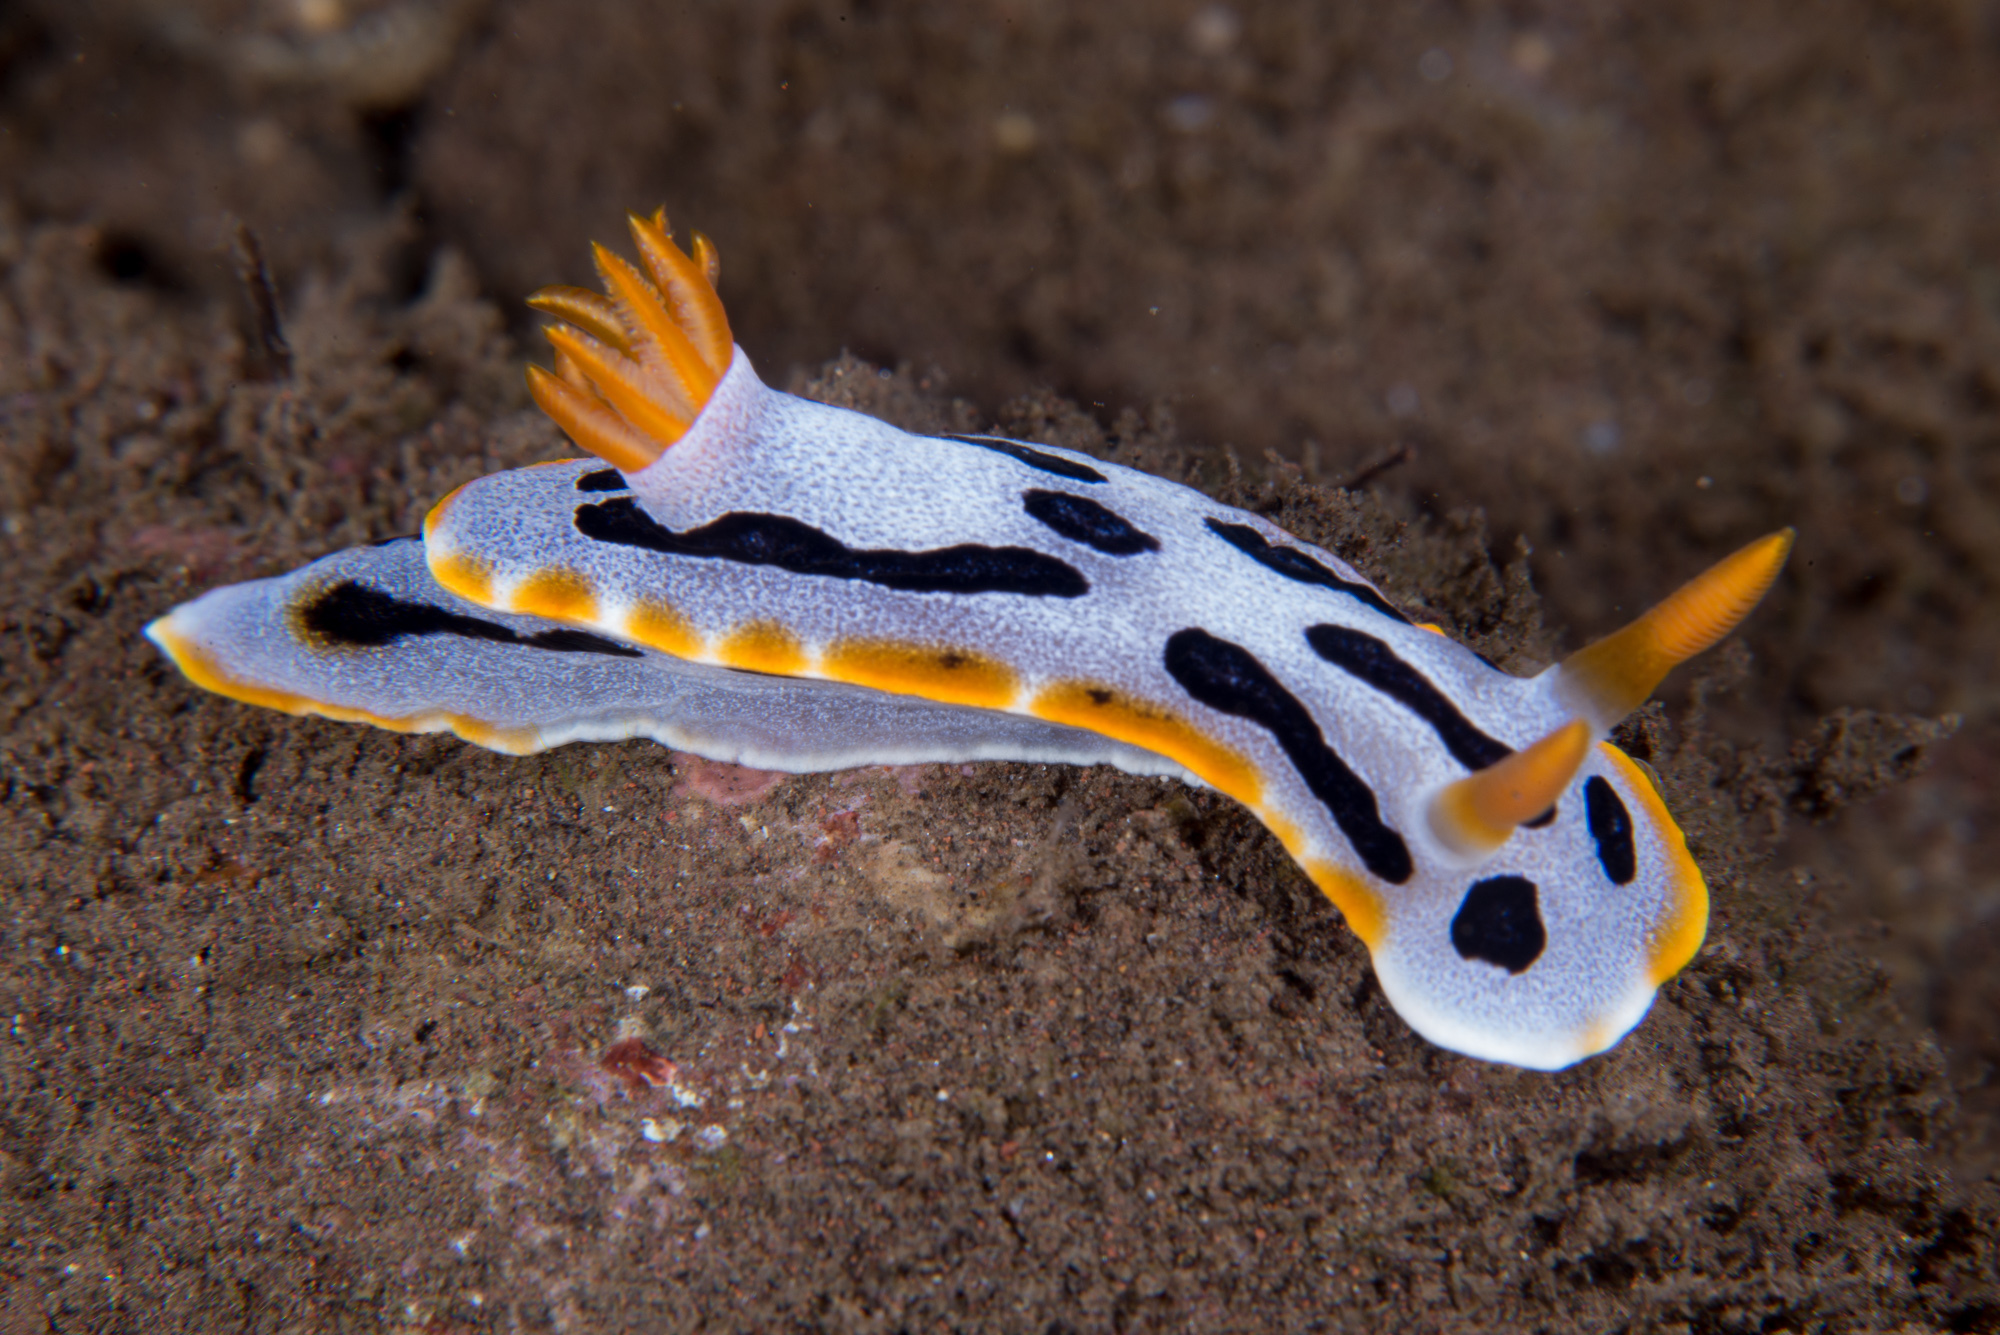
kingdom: Animalia
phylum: Mollusca
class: Gastropoda
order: Nudibranchia
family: Chromodorididae
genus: Chromodoris
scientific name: Chromodoris dianae
